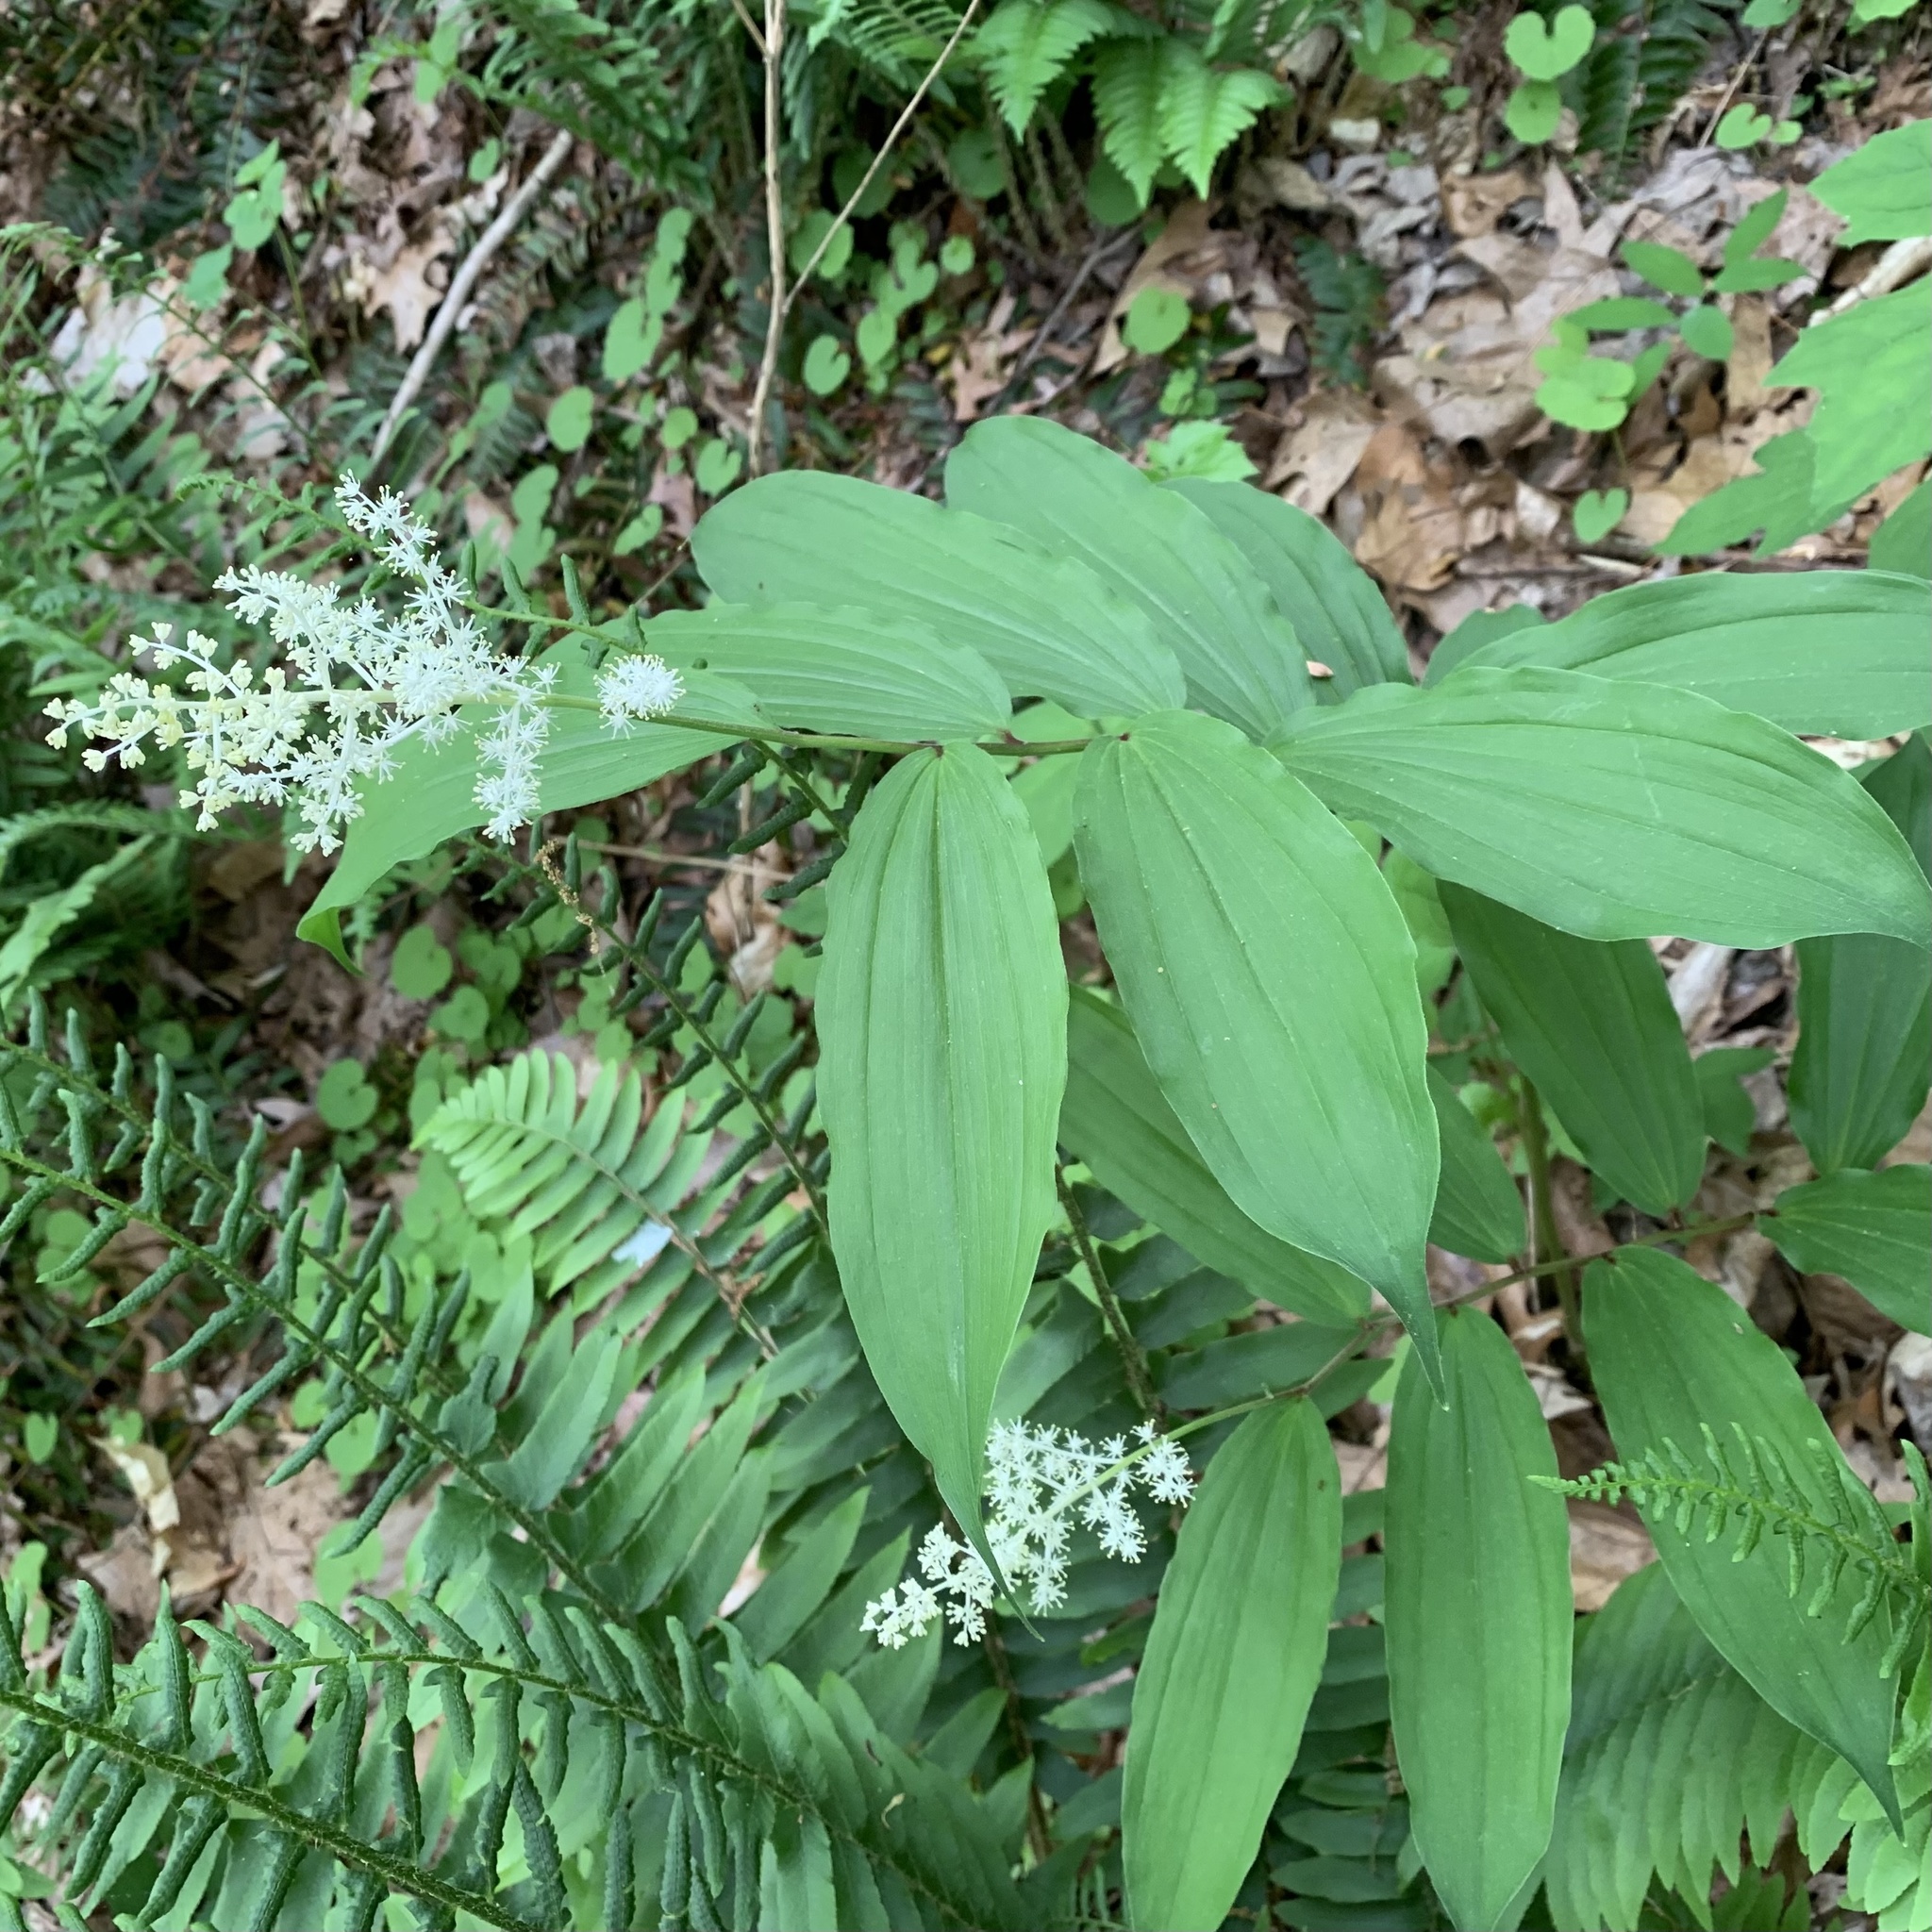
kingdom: Plantae
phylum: Tracheophyta
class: Liliopsida
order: Asparagales
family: Asparagaceae
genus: Maianthemum
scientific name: Maianthemum racemosum
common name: False spikenard
